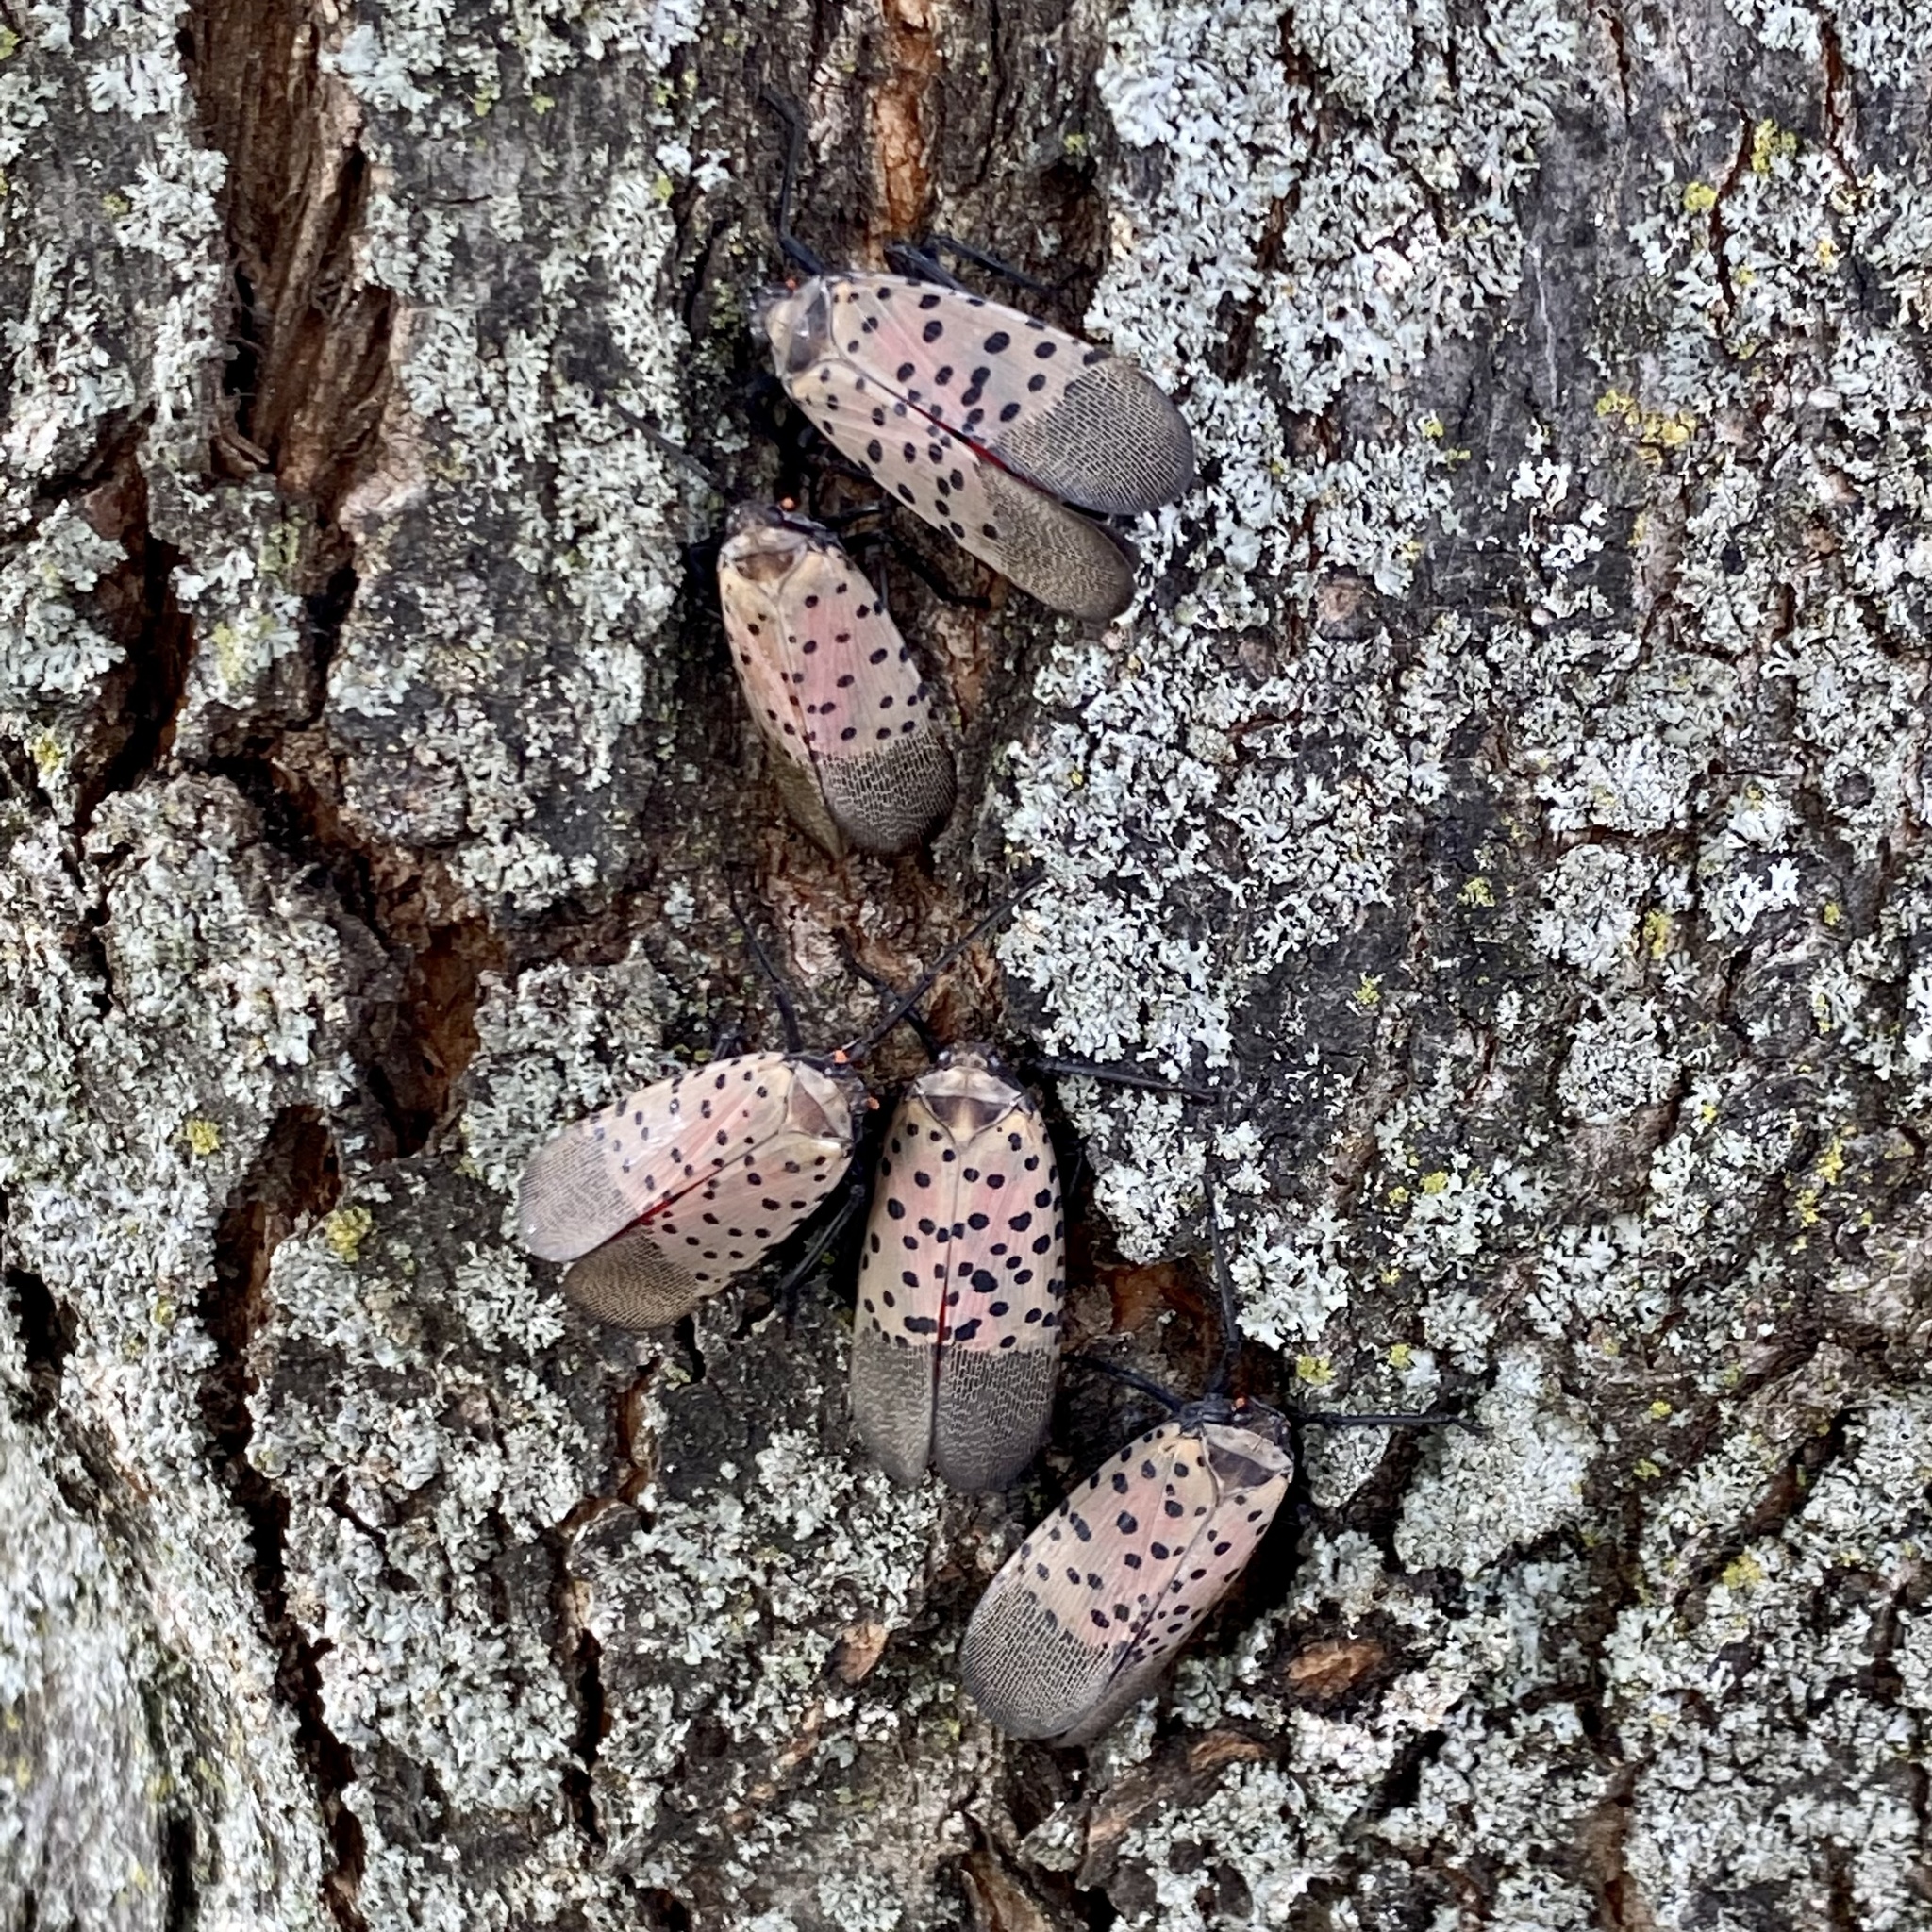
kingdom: Animalia
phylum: Arthropoda
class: Insecta
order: Hemiptera
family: Fulgoridae
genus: Lycorma
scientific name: Lycorma delicatula
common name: Spotted lanternfly
